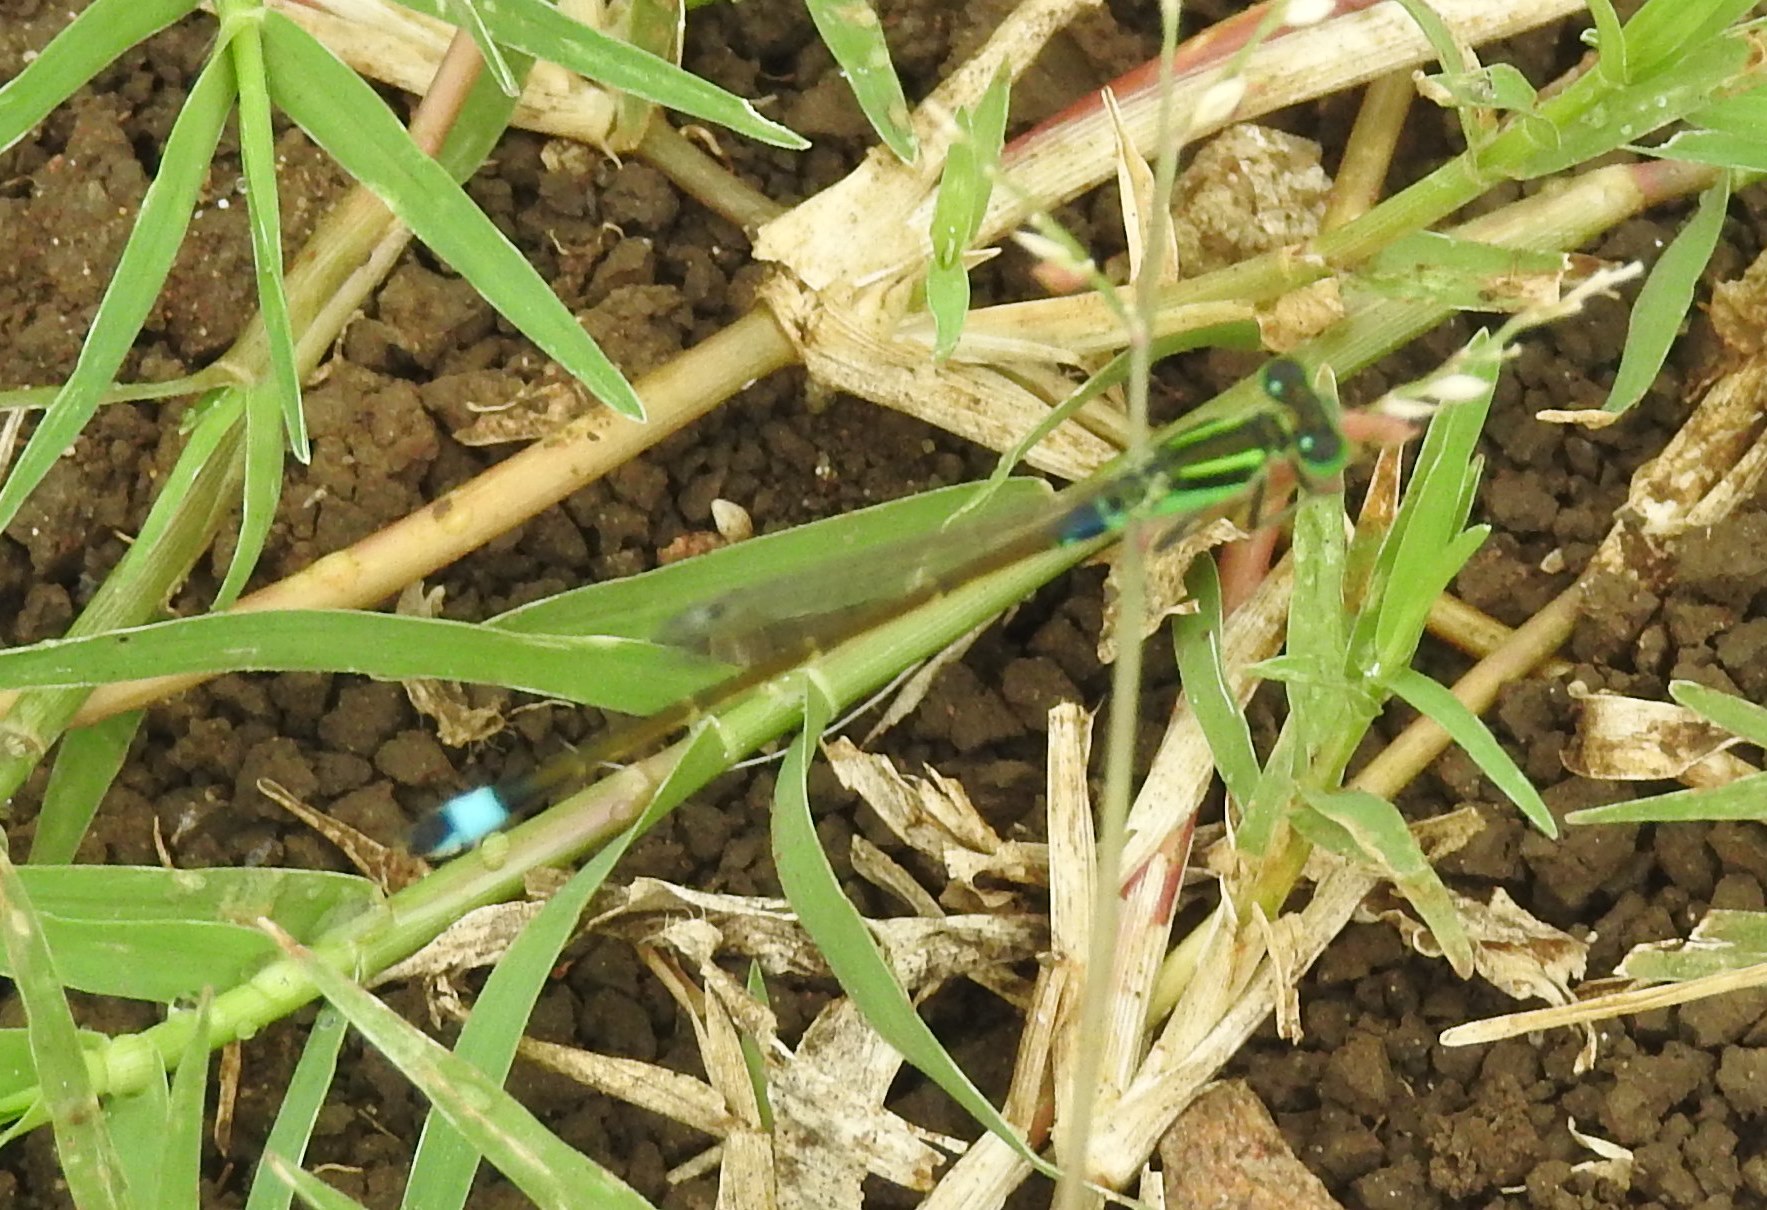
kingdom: Animalia
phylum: Arthropoda
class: Insecta
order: Odonata
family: Coenagrionidae
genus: Ischnura
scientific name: Ischnura senegalensis
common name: Tropical bluetail
